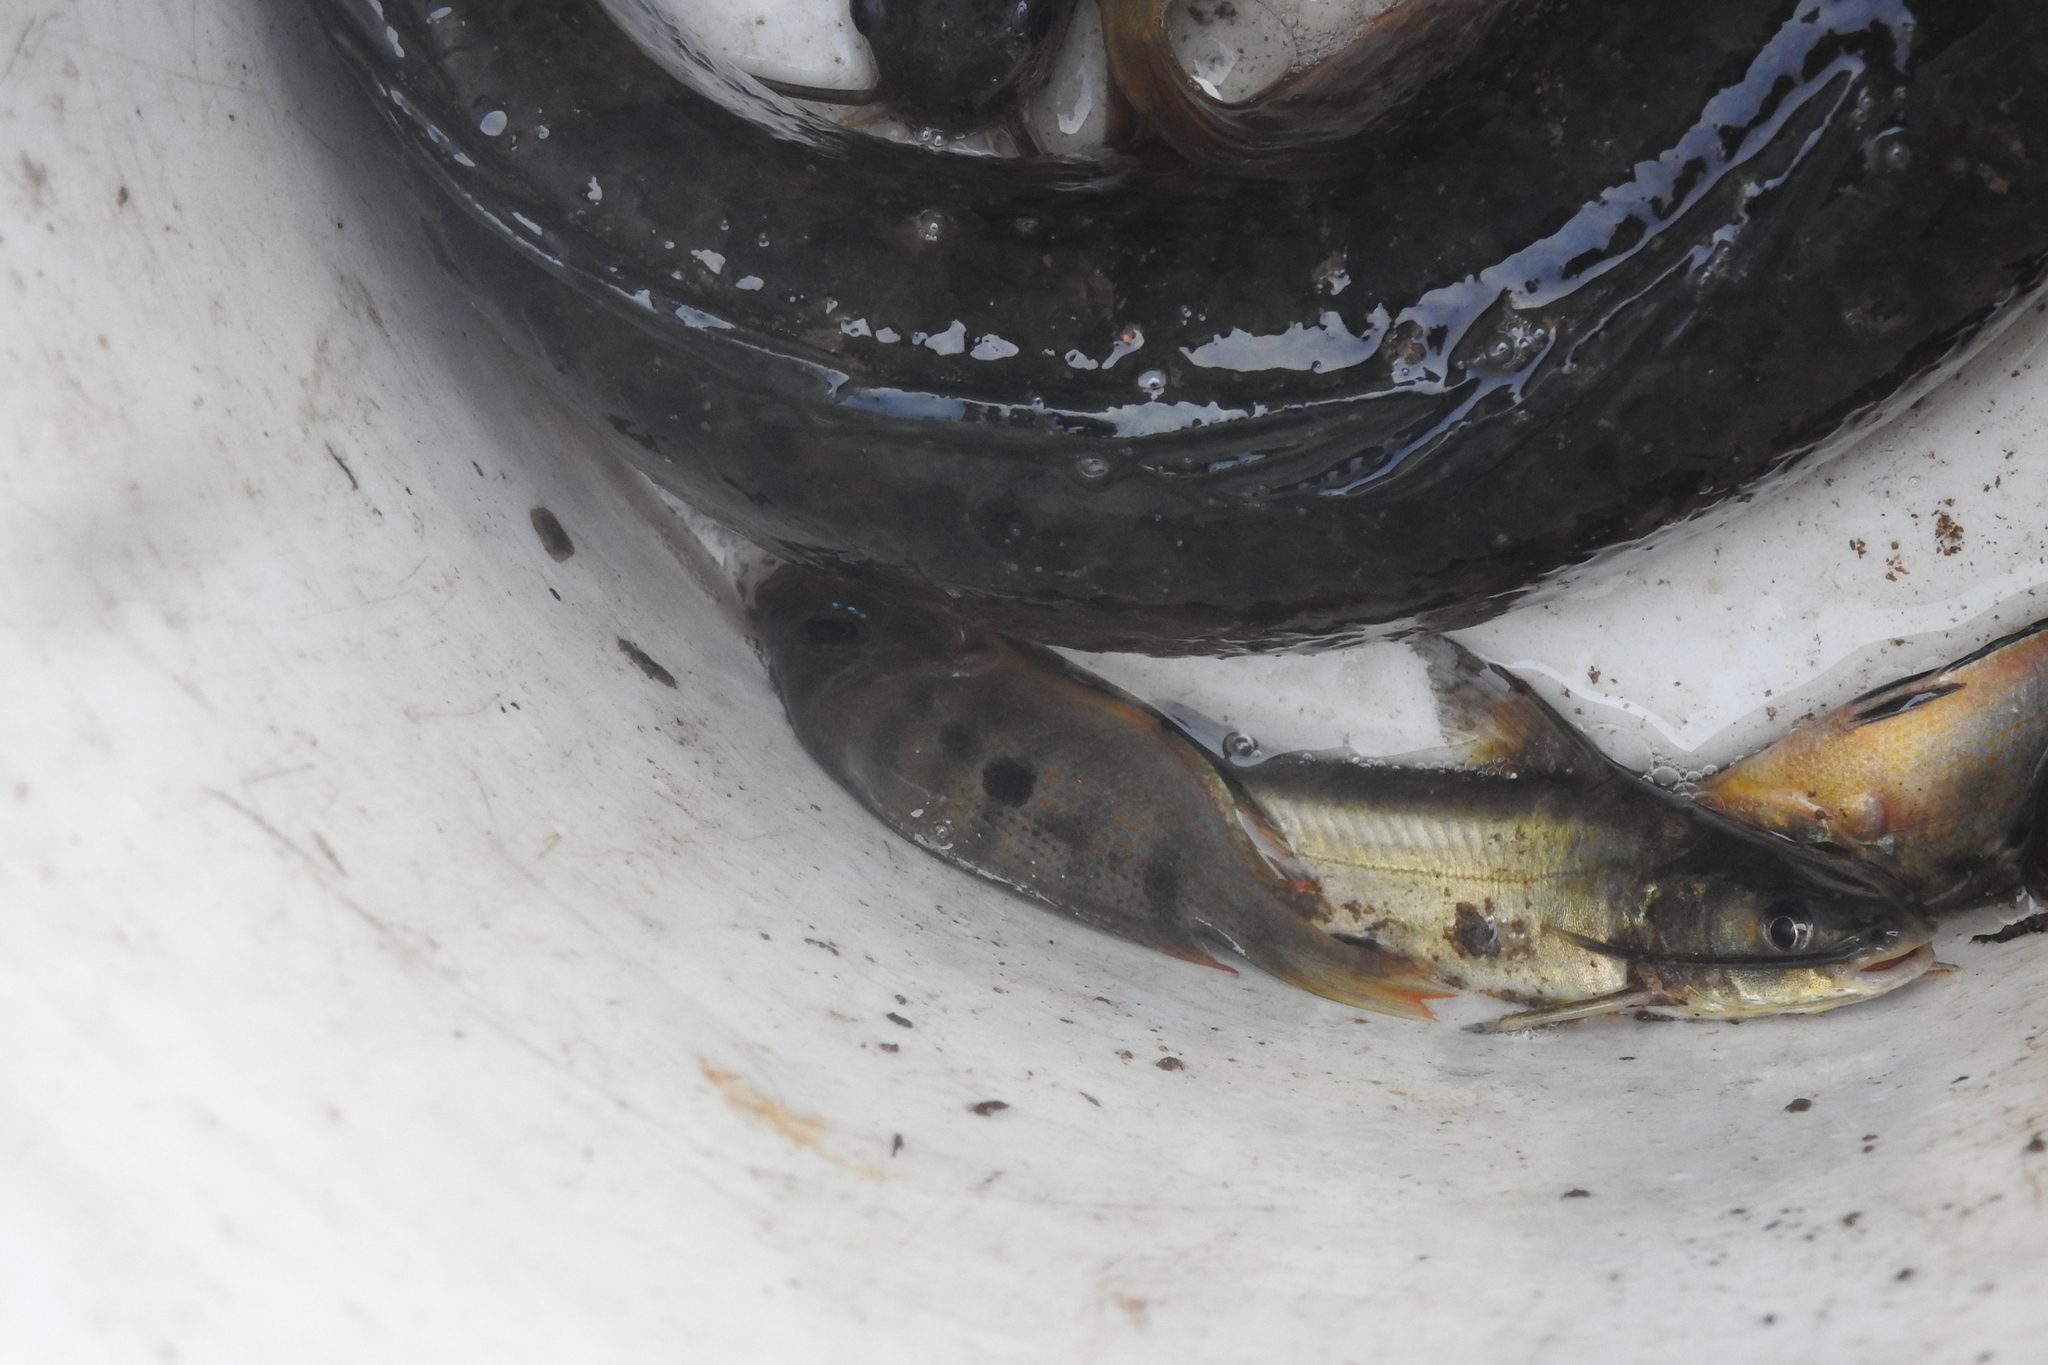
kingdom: Animalia
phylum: Chordata
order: Perciformes
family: Cichlidae
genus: Etroplus
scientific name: Etroplus maculatus
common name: Orange chromide
